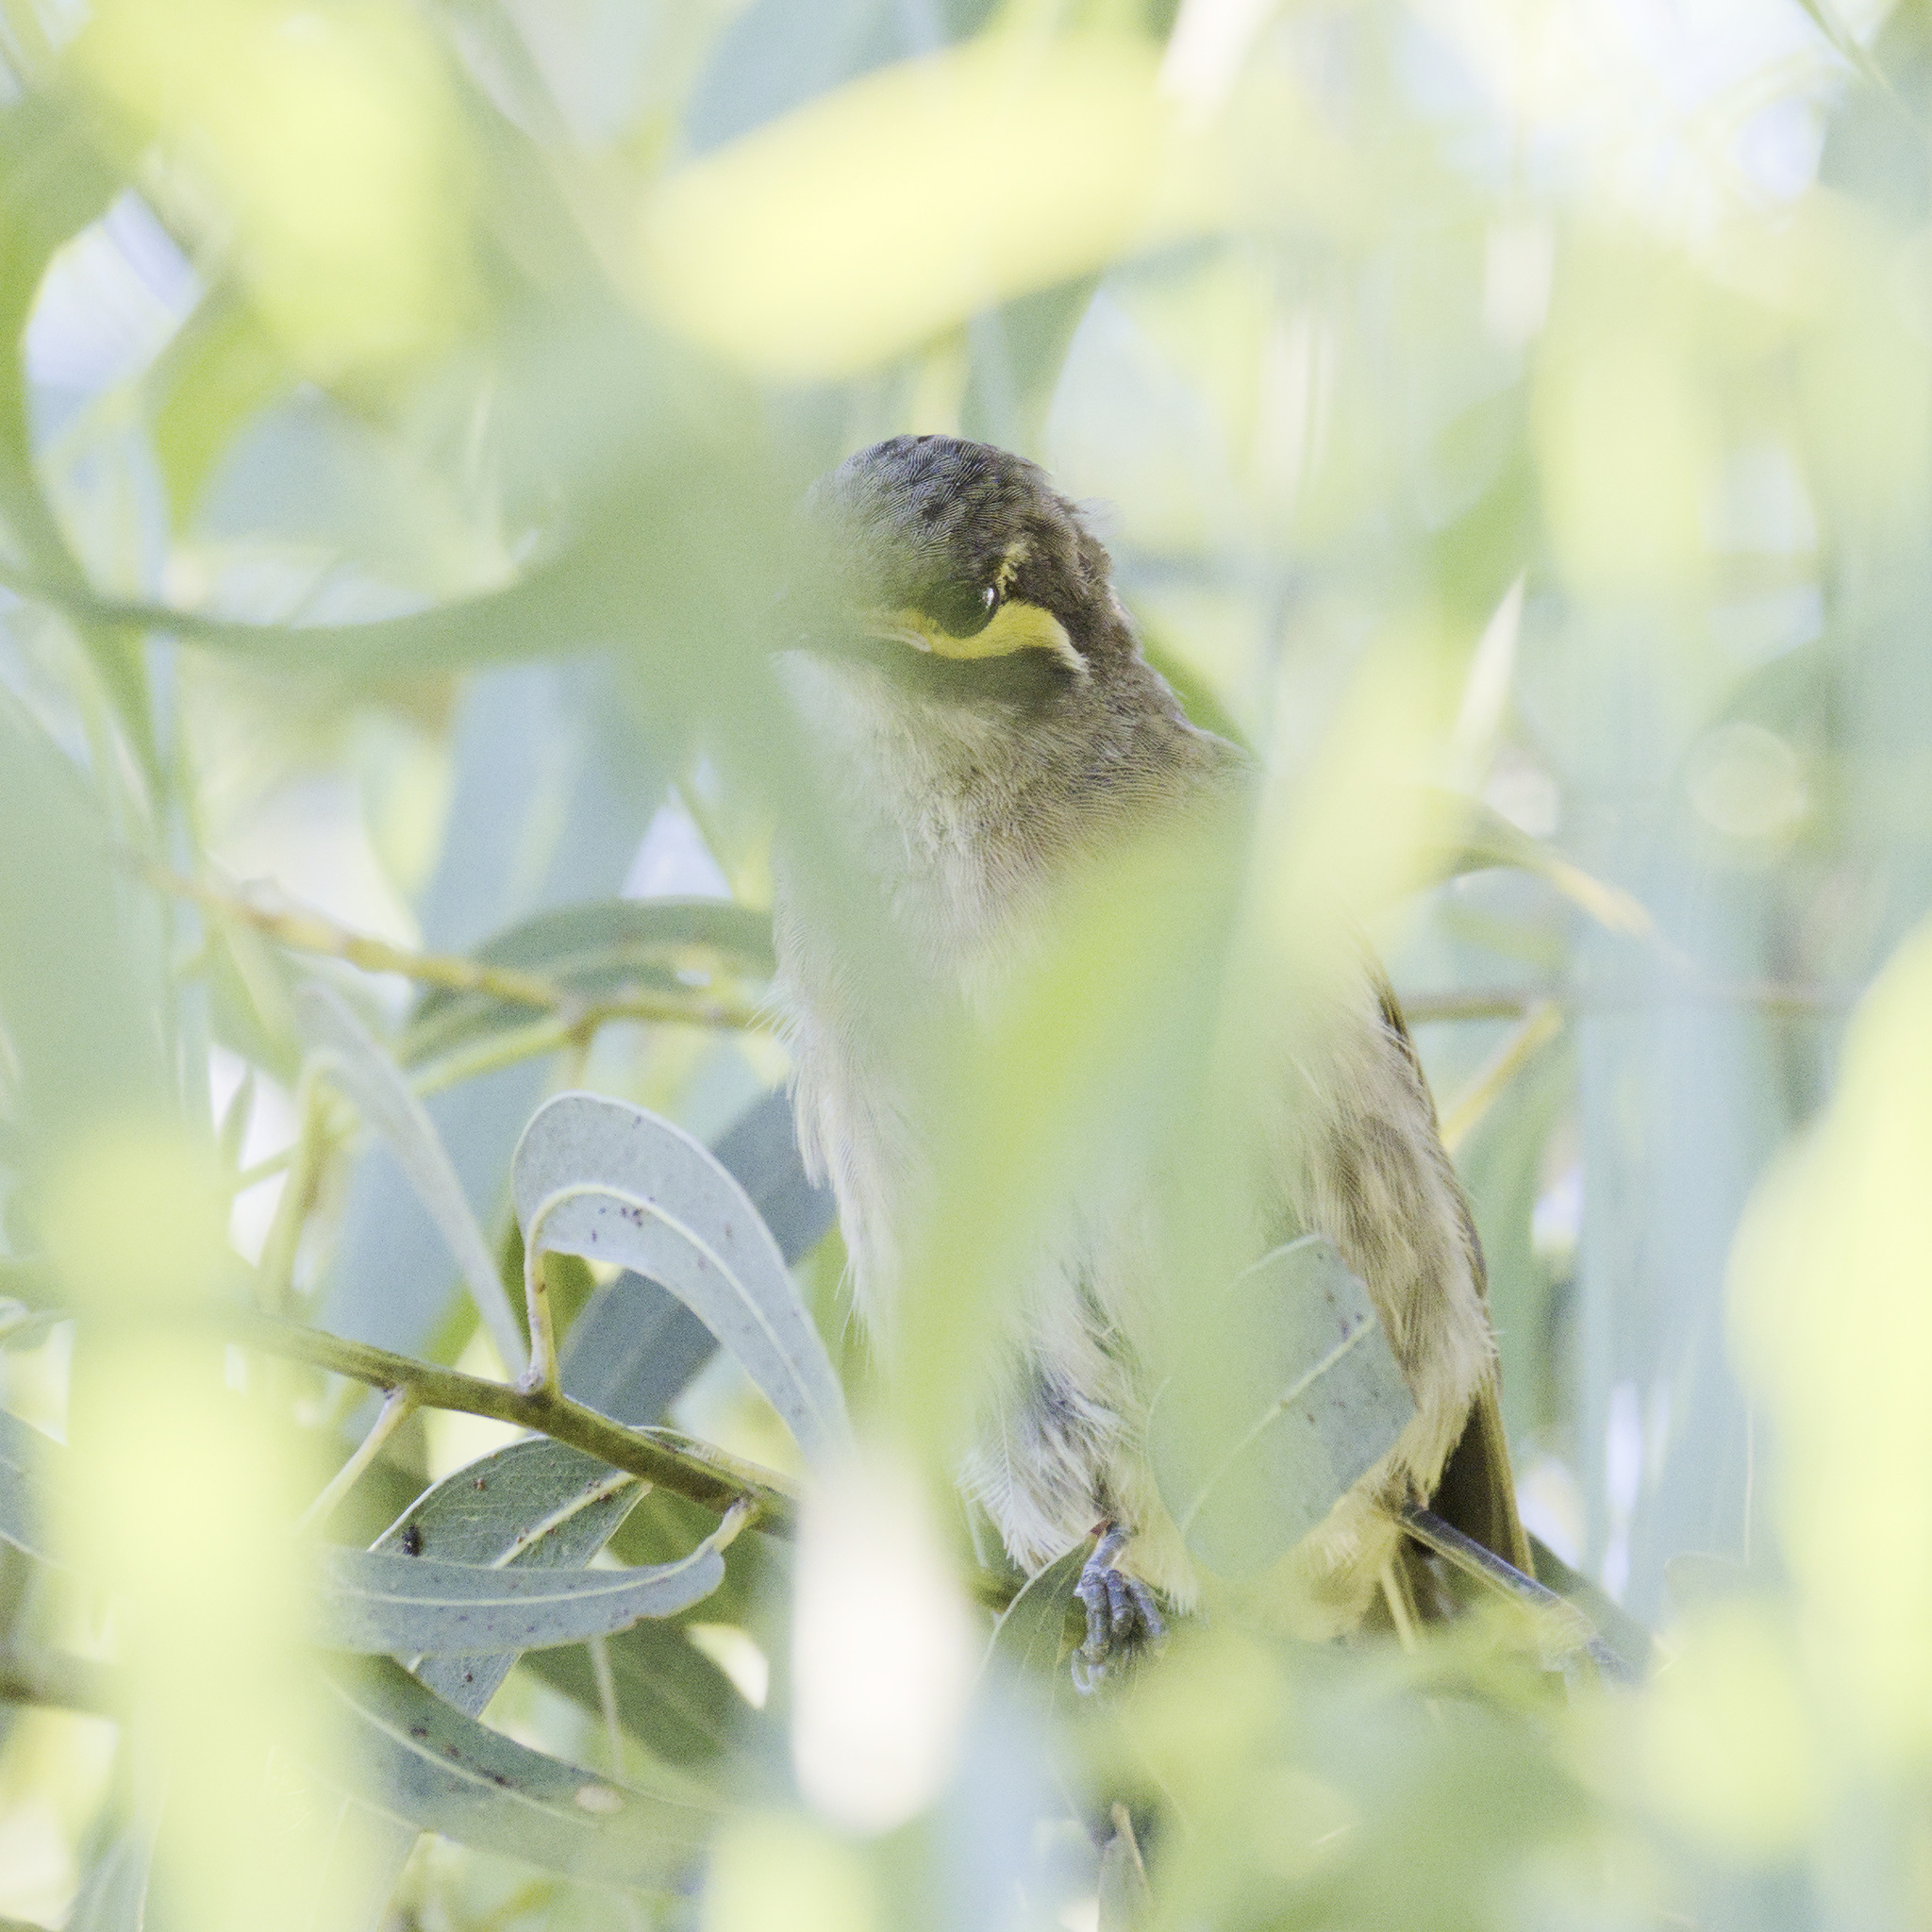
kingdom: Animalia
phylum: Chordata
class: Aves
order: Passeriformes
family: Meliphagidae
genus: Caligavis
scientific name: Caligavis chrysops
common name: Yellow-faced honeyeater
